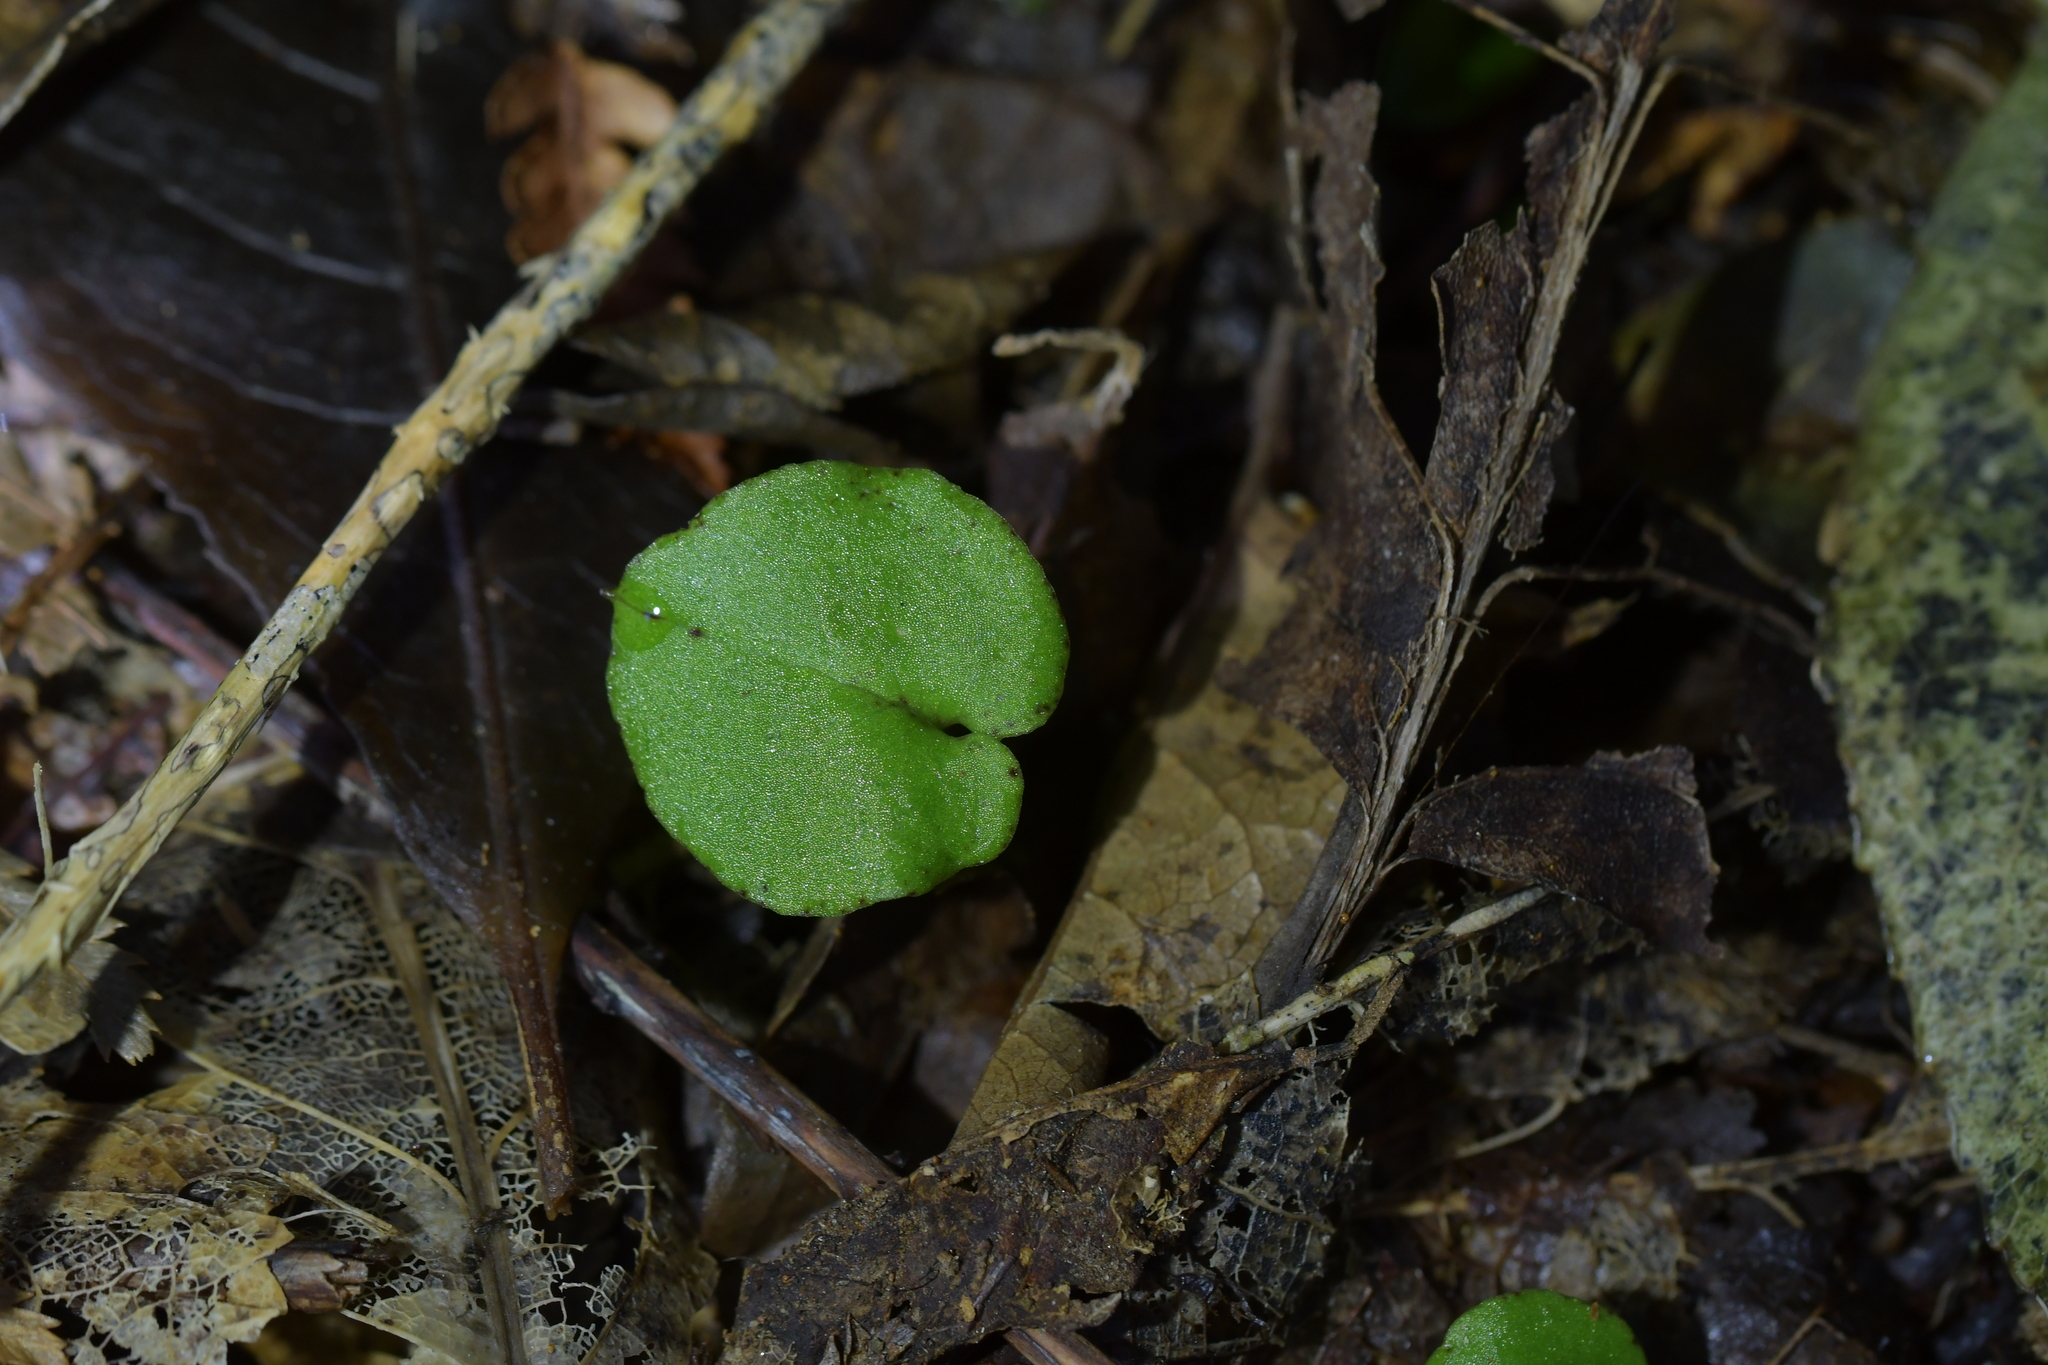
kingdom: Plantae
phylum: Tracheophyta
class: Liliopsida
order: Asparagales
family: Orchidaceae
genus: Corybas
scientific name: Corybas iridescens
